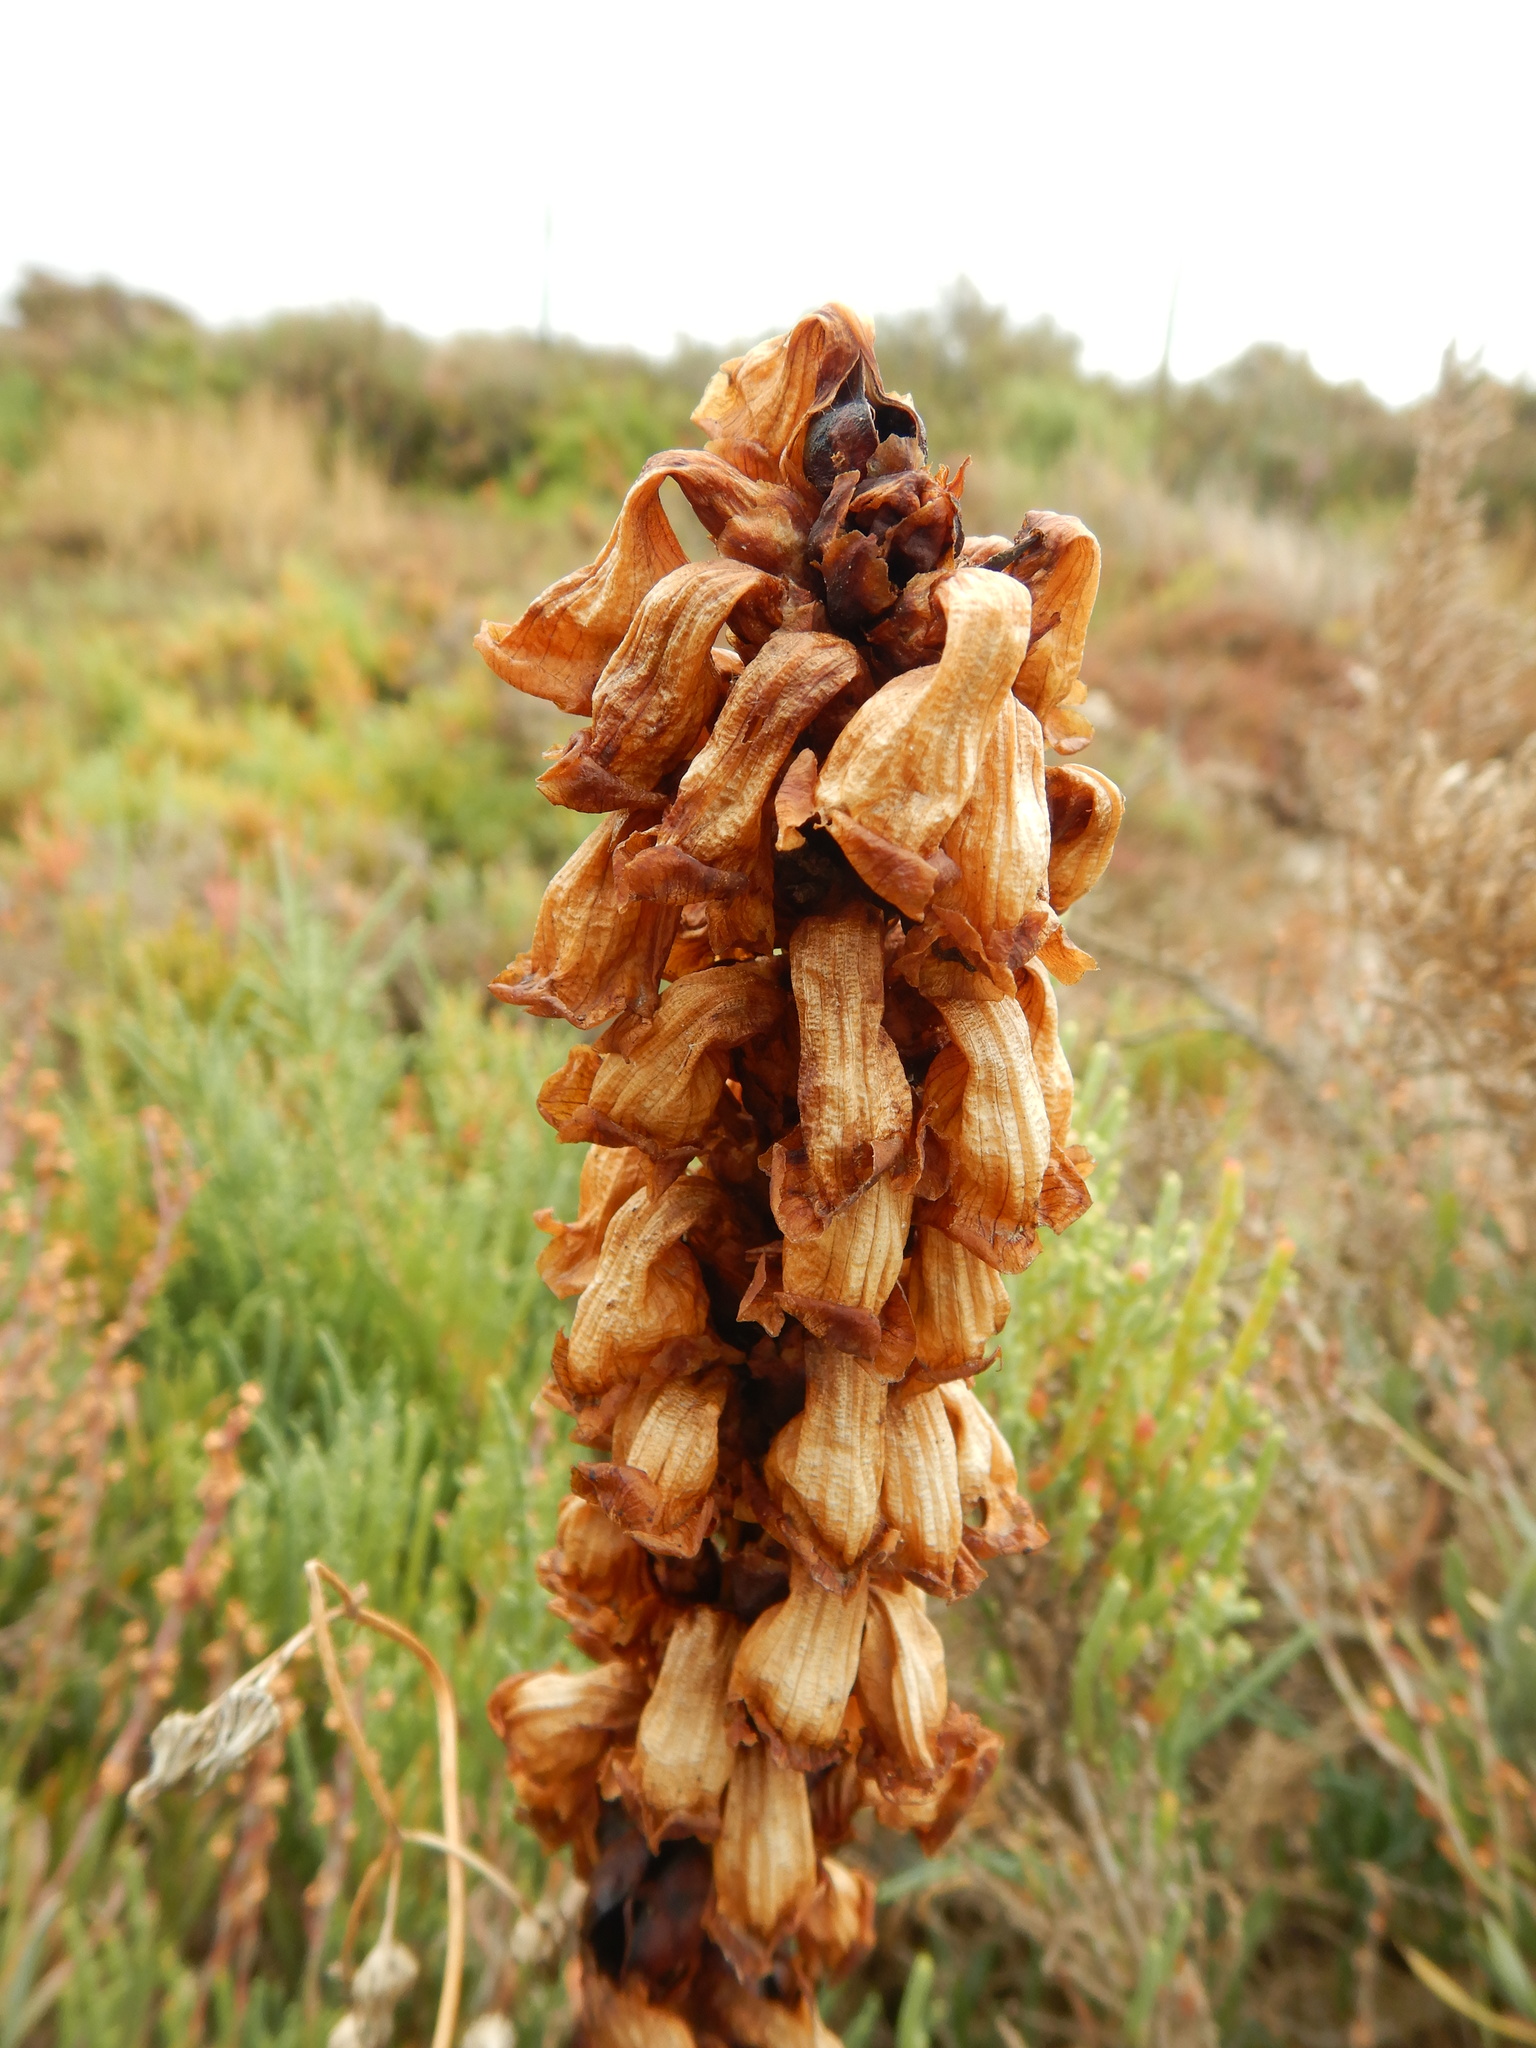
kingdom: Plantae
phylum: Tracheophyta
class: Magnoliopsida
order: Lamiales
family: Orobanchaceae
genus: Cistanche
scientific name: Cistanche phelypaea
